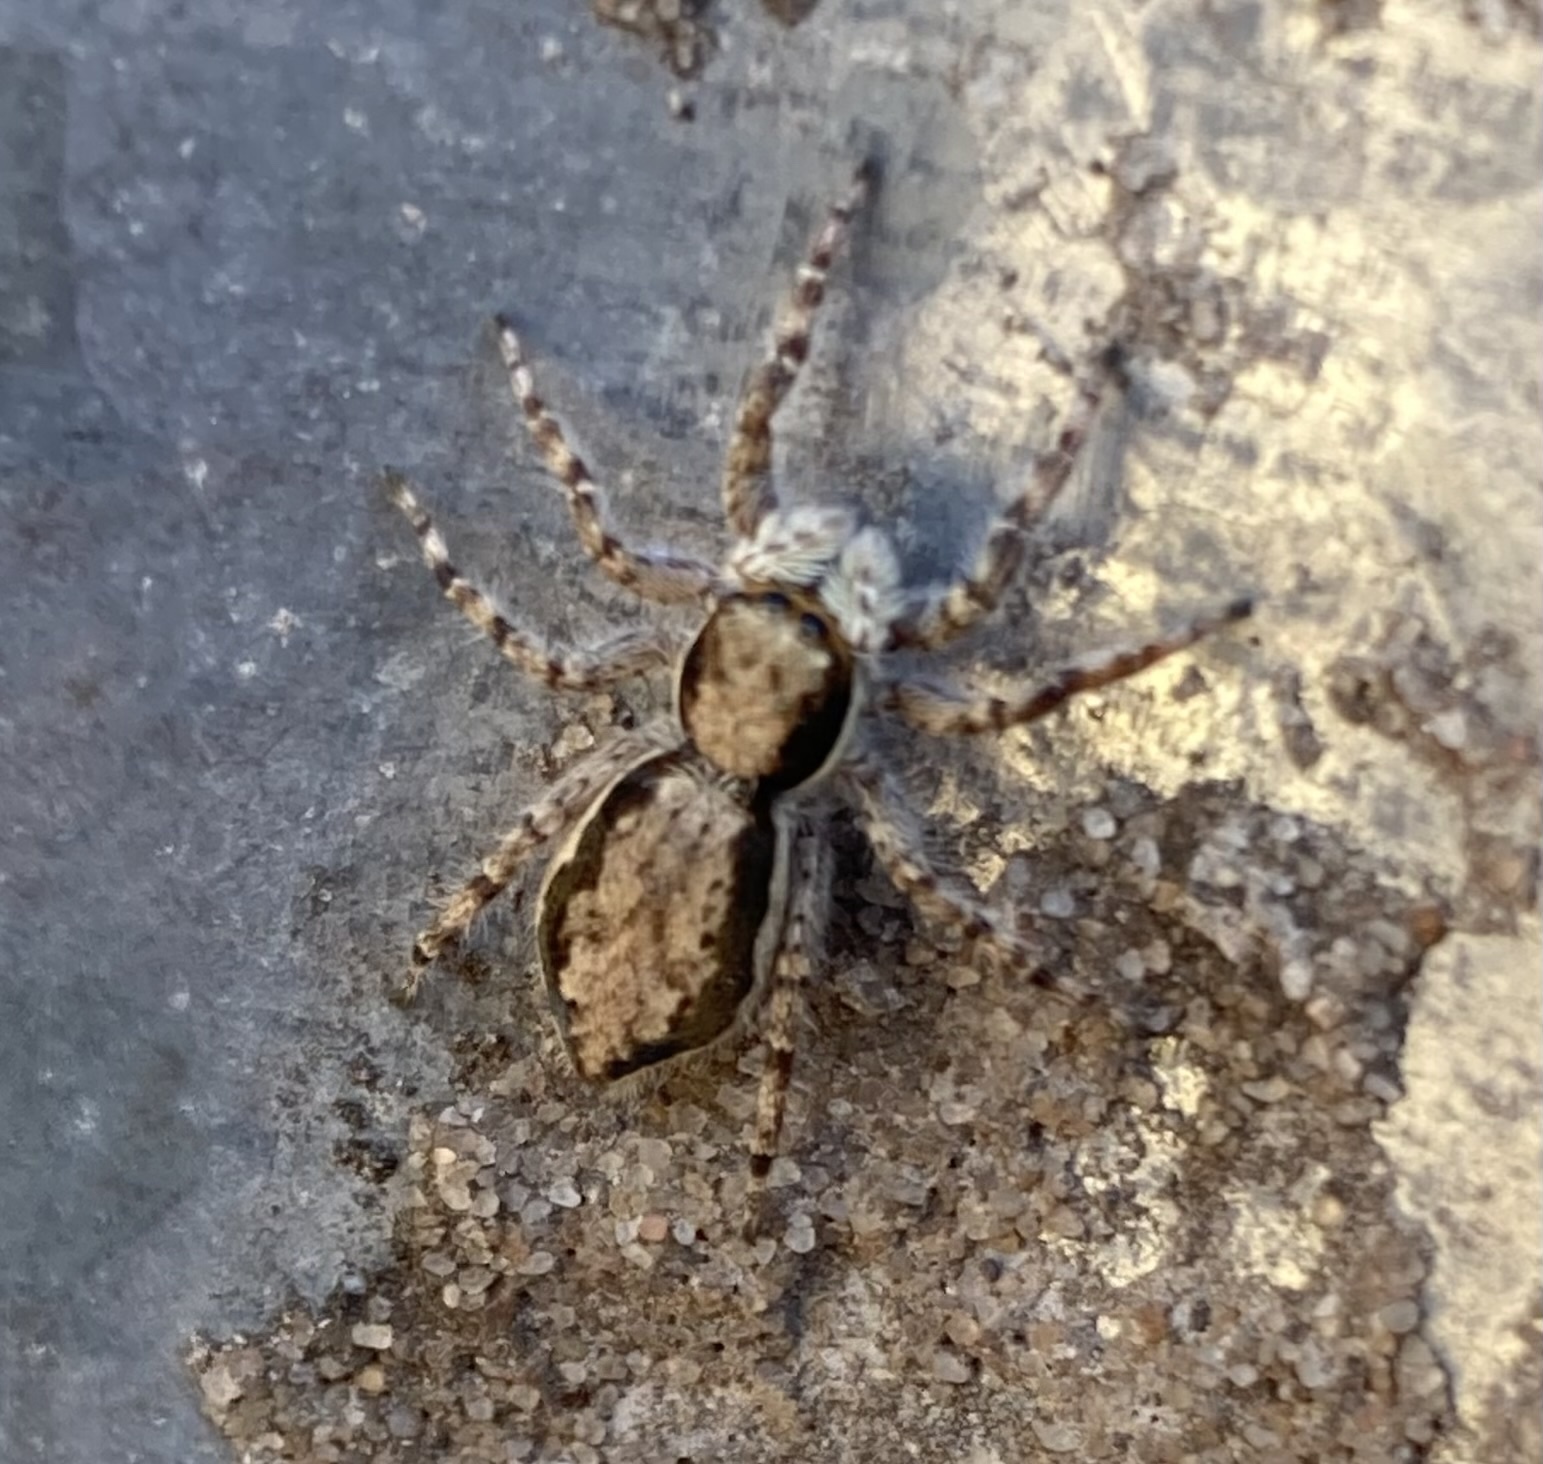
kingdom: Animalia
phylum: Arthropoda
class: Arachnida
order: Araneae
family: Salticidae
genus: Menemerus
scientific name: Menemerus bivittatus
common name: Gray wall jumper
